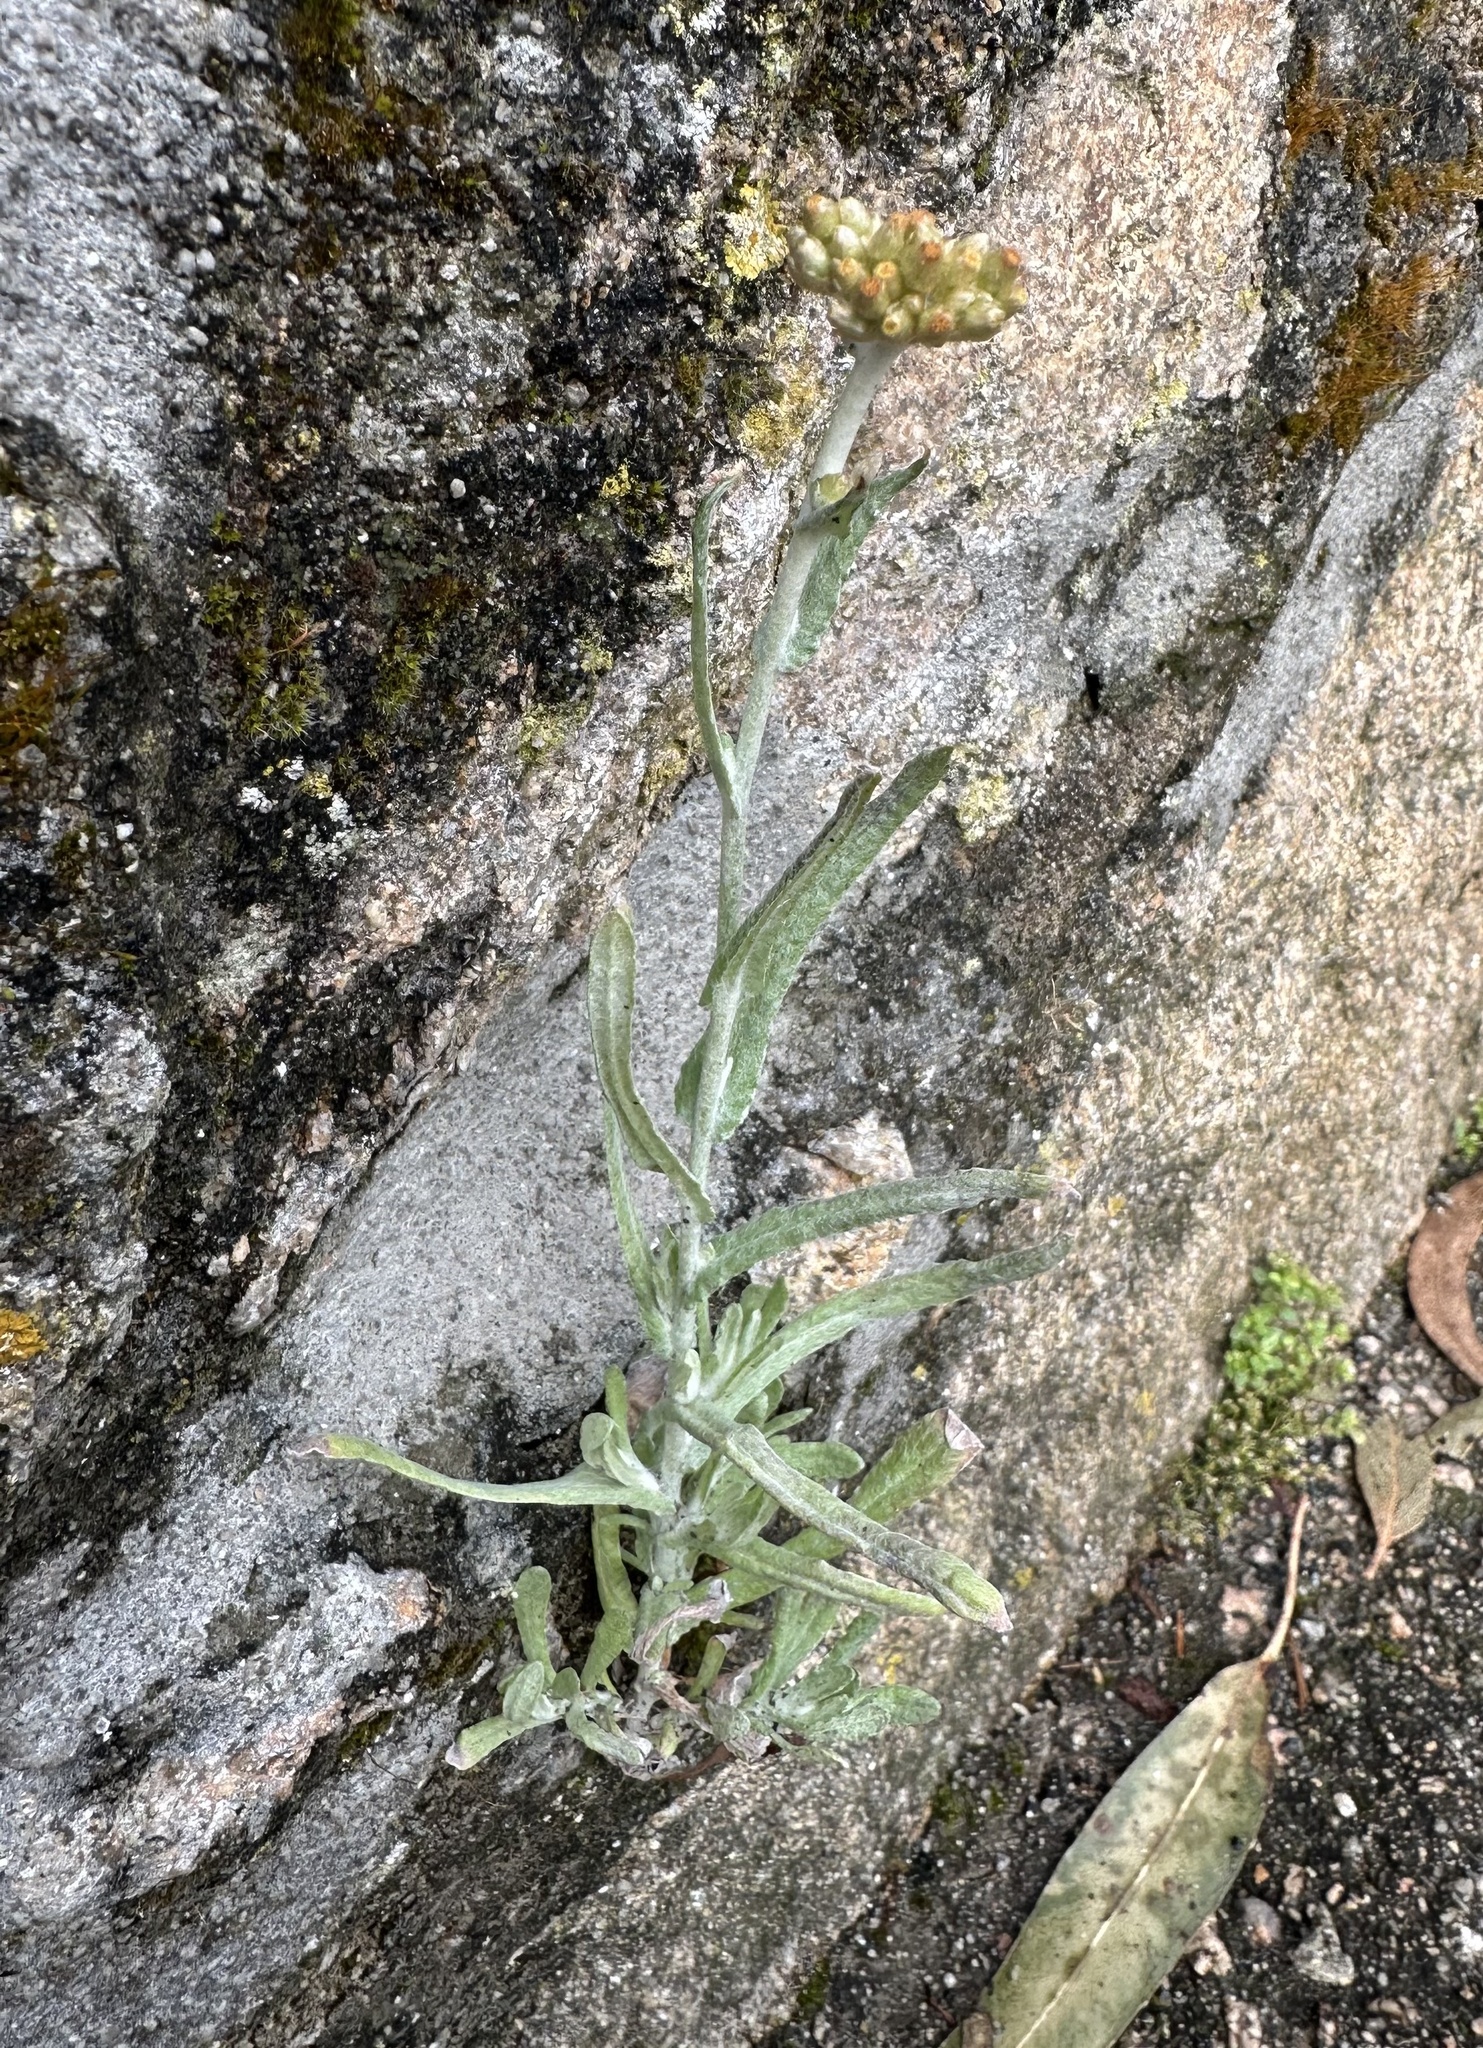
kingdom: Plantae
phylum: Tracheophyta
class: Magnoliopsida
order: Asterales
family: Asteraceae
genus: Helichrysum
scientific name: Helichrysum luteoalbum
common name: Daisy
